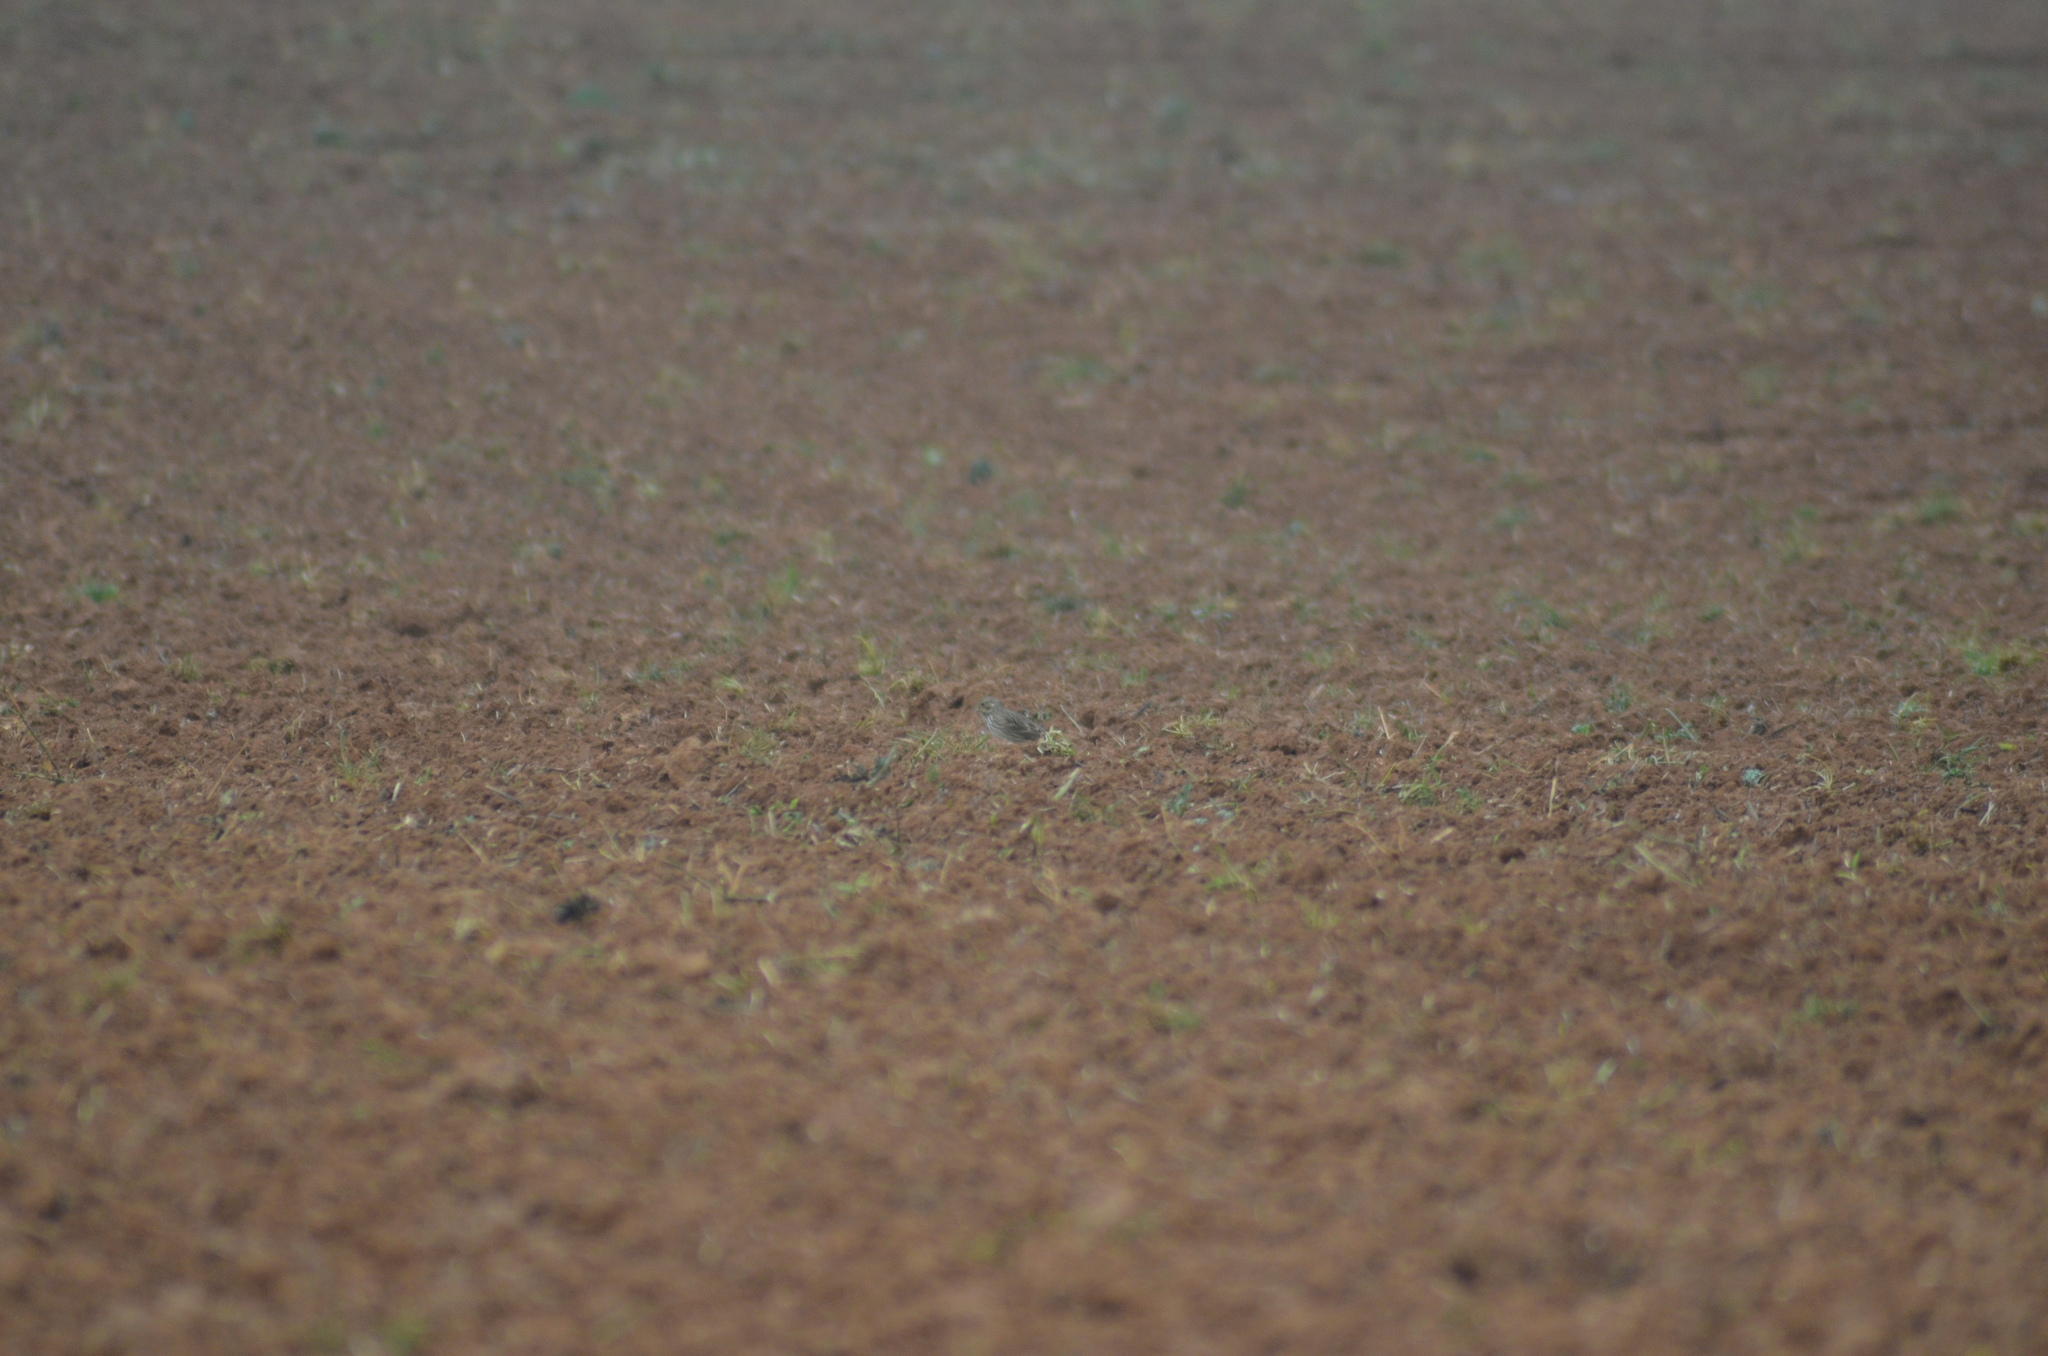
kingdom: Animalia
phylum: Chordata
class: Aves
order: Passeriformes
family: Emberizidae
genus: Emberiza
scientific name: Emberiza calandra
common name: Corn bunting
